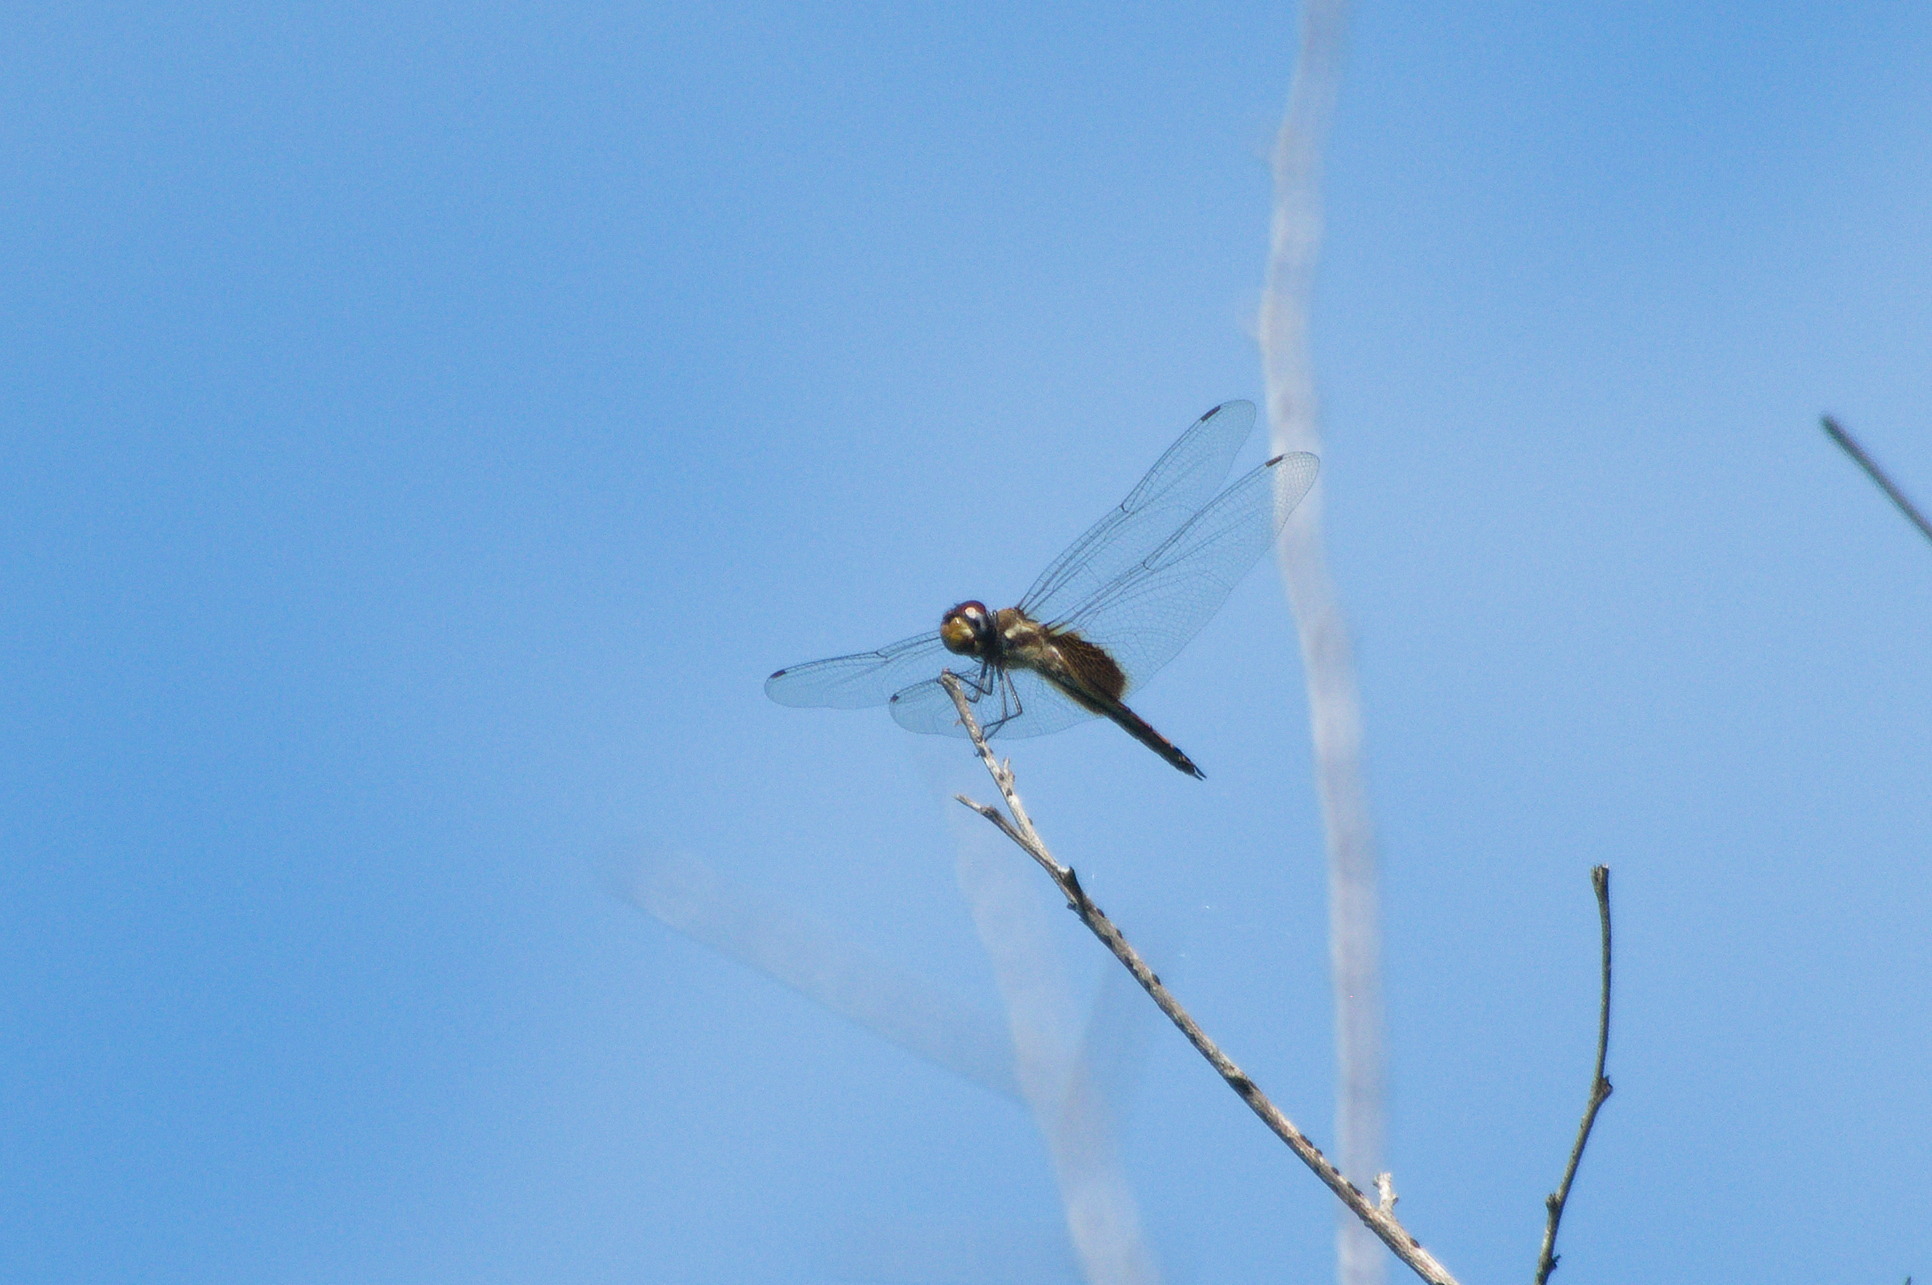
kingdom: Animalia
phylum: Arthropoda
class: Insecta
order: Odonata
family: Libellulidae
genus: Tramea
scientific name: Tramea darwini
